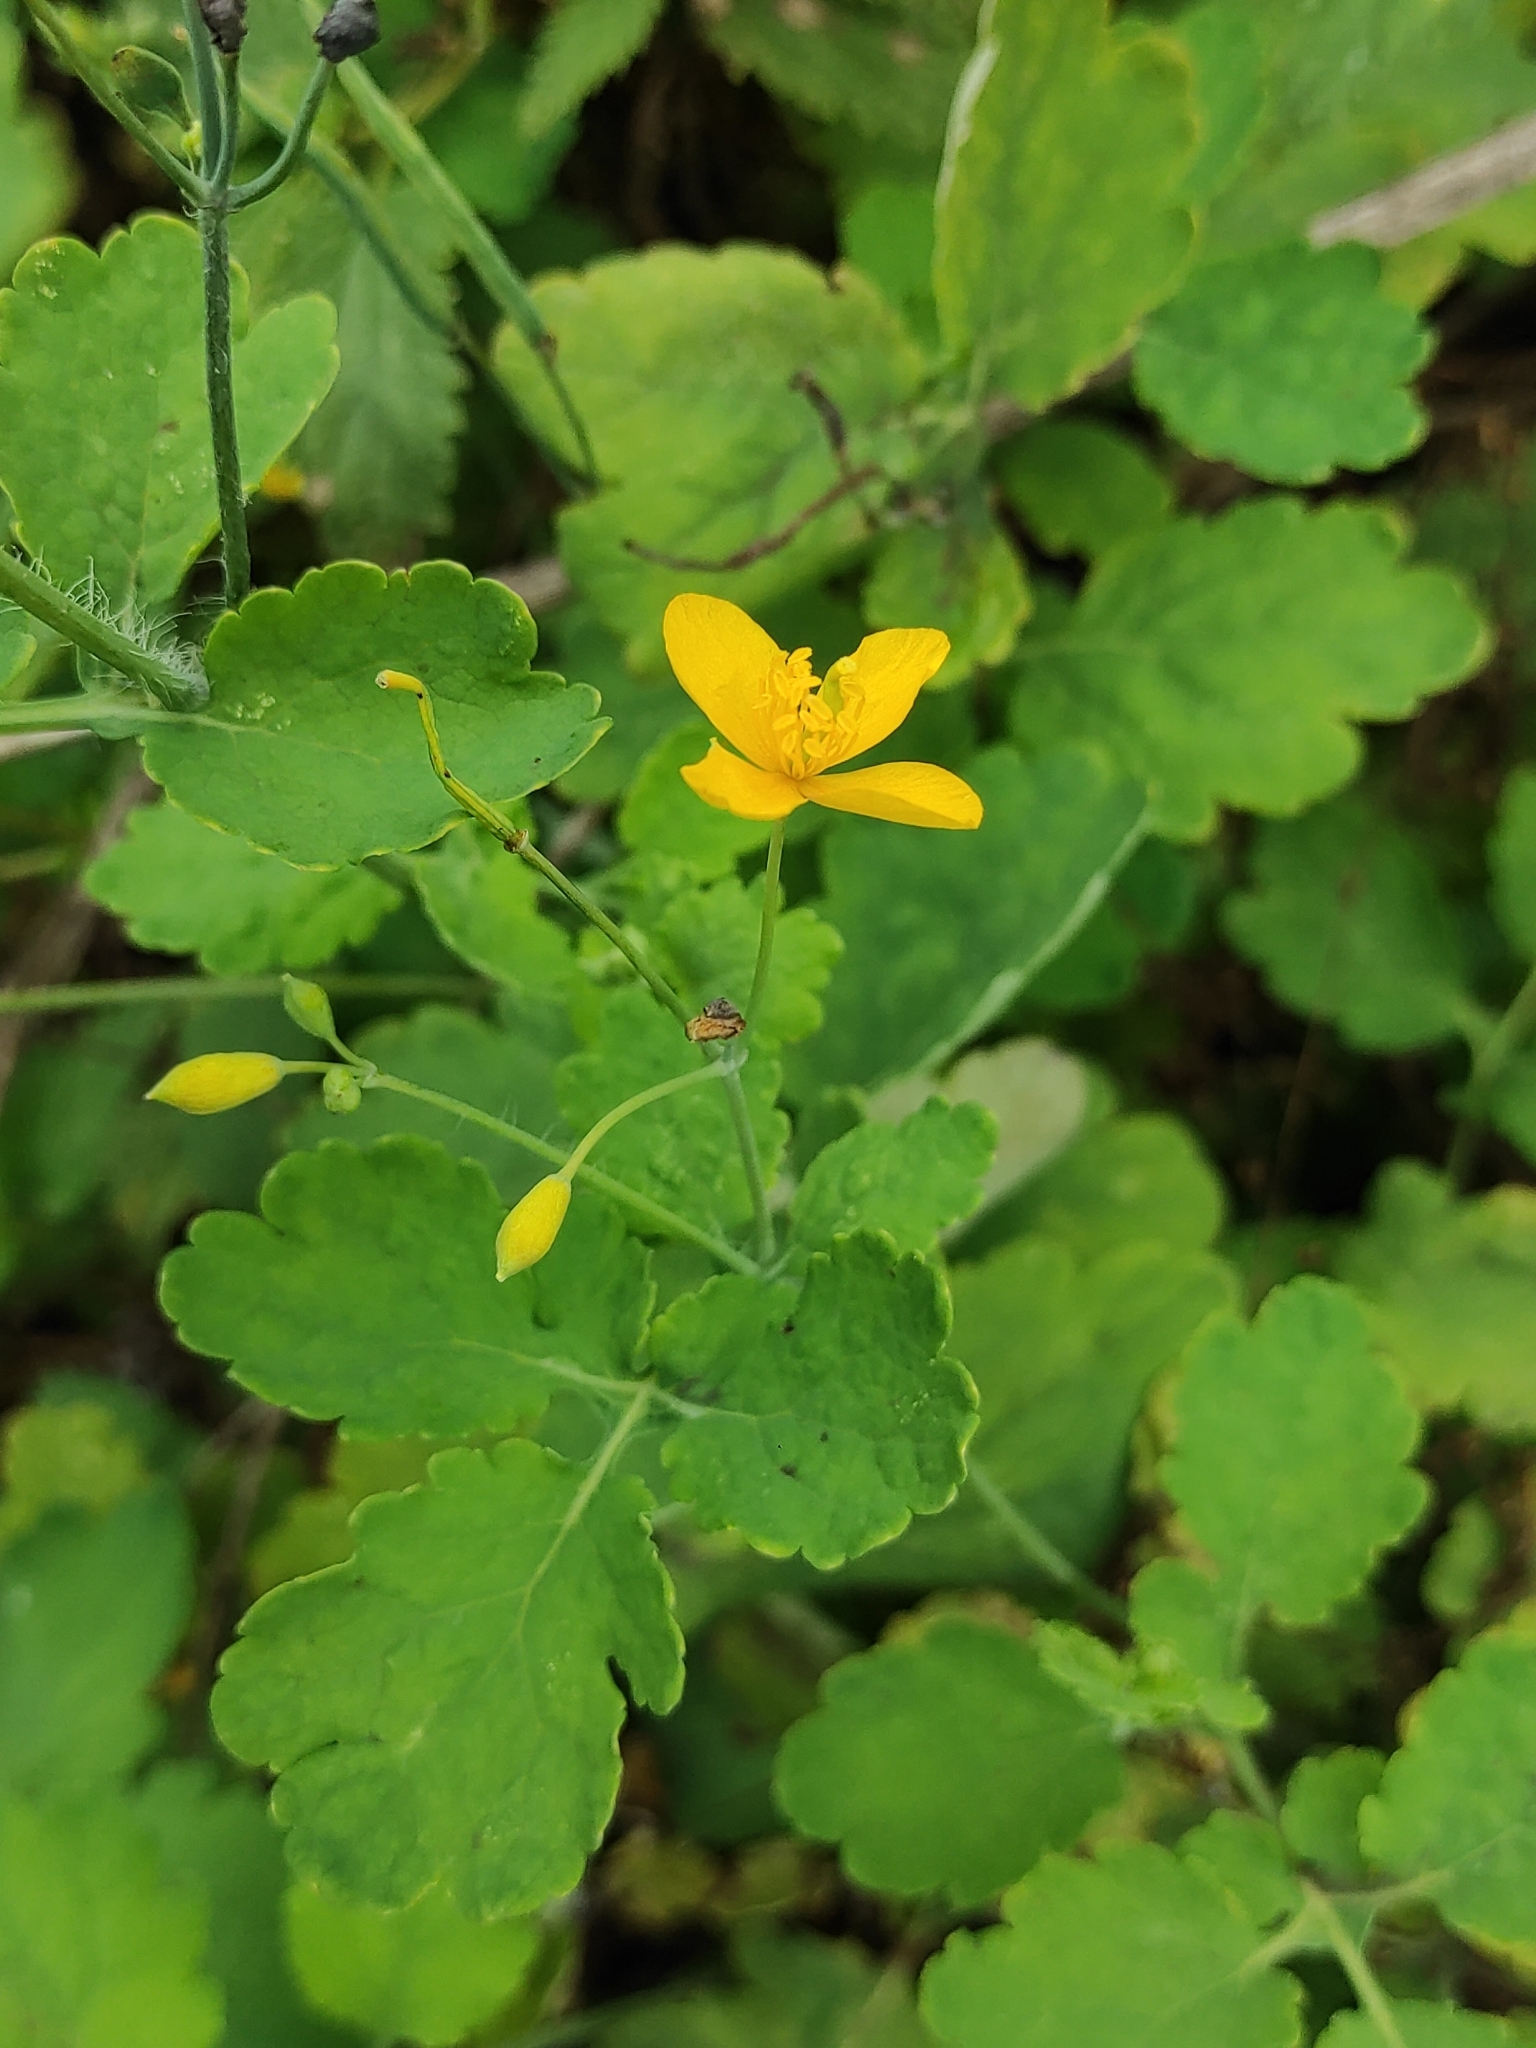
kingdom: Plantae
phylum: Tracheophyta
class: Magnoliopsida
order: Ranunculales
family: Papaveraceae
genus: Chelidonium
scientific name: Chelidonium majus
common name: Greater celandine
